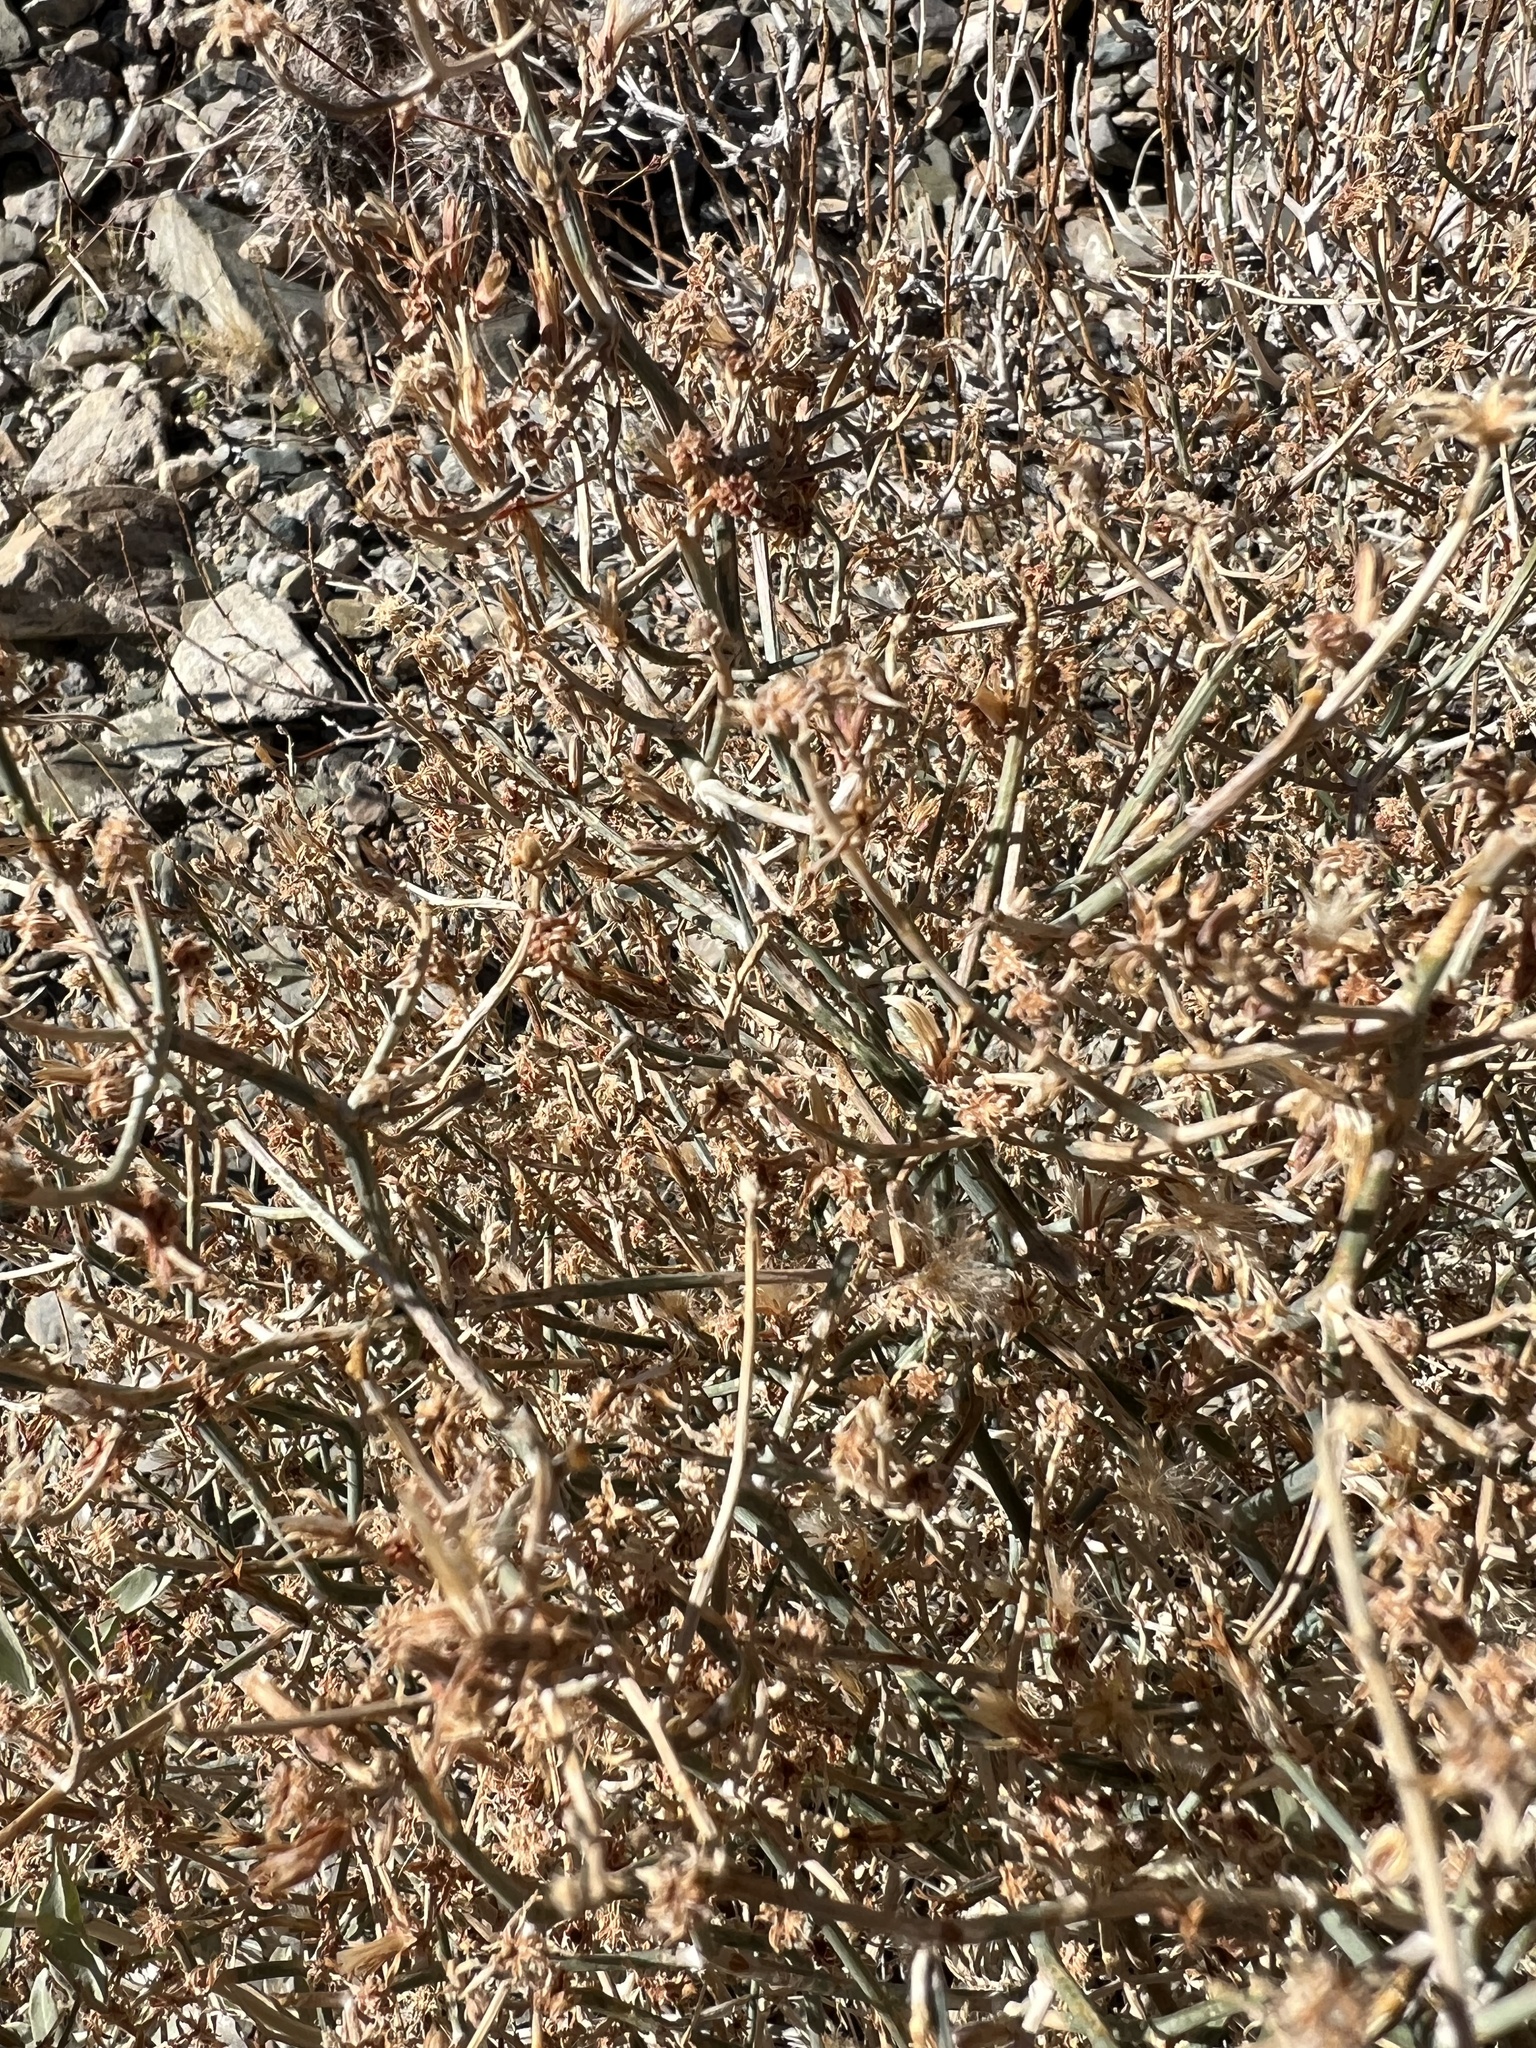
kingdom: Plantae
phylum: Tracheophyta
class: Magnoliopsida
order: Asterales
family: Asteraceae
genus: Stephanomeria
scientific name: Stephanomeria pauciflora
